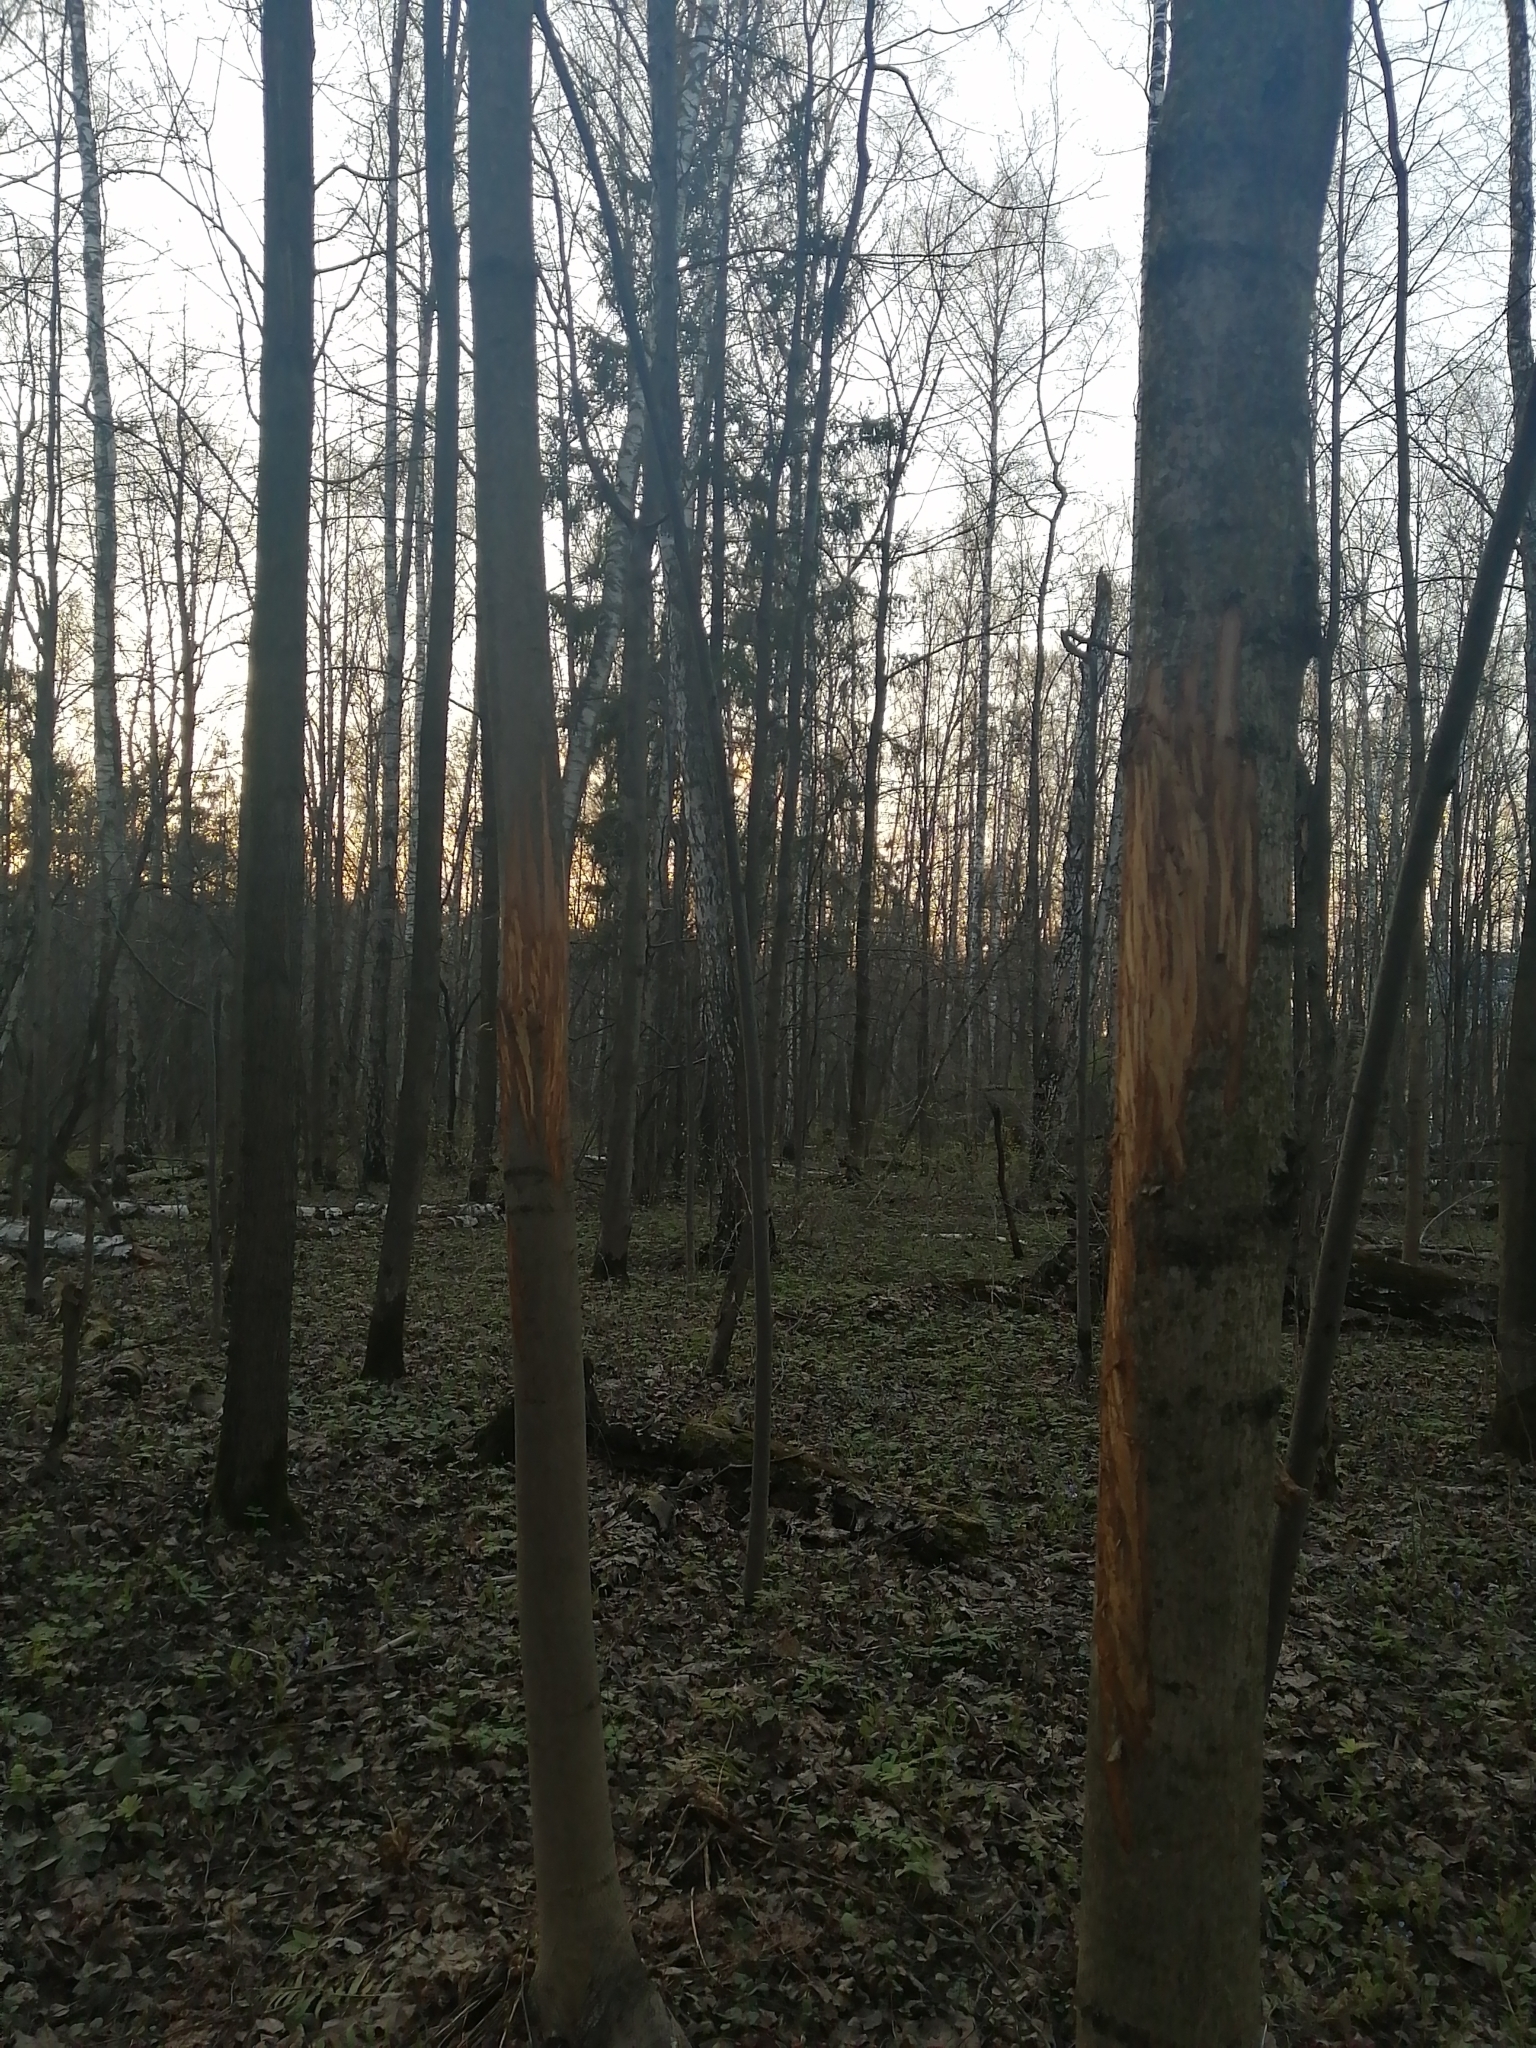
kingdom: Animalia
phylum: Chordata
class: Mammalia
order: Artiodactyla
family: Cervidae
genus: Alces
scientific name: Alces alces
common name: Moose
